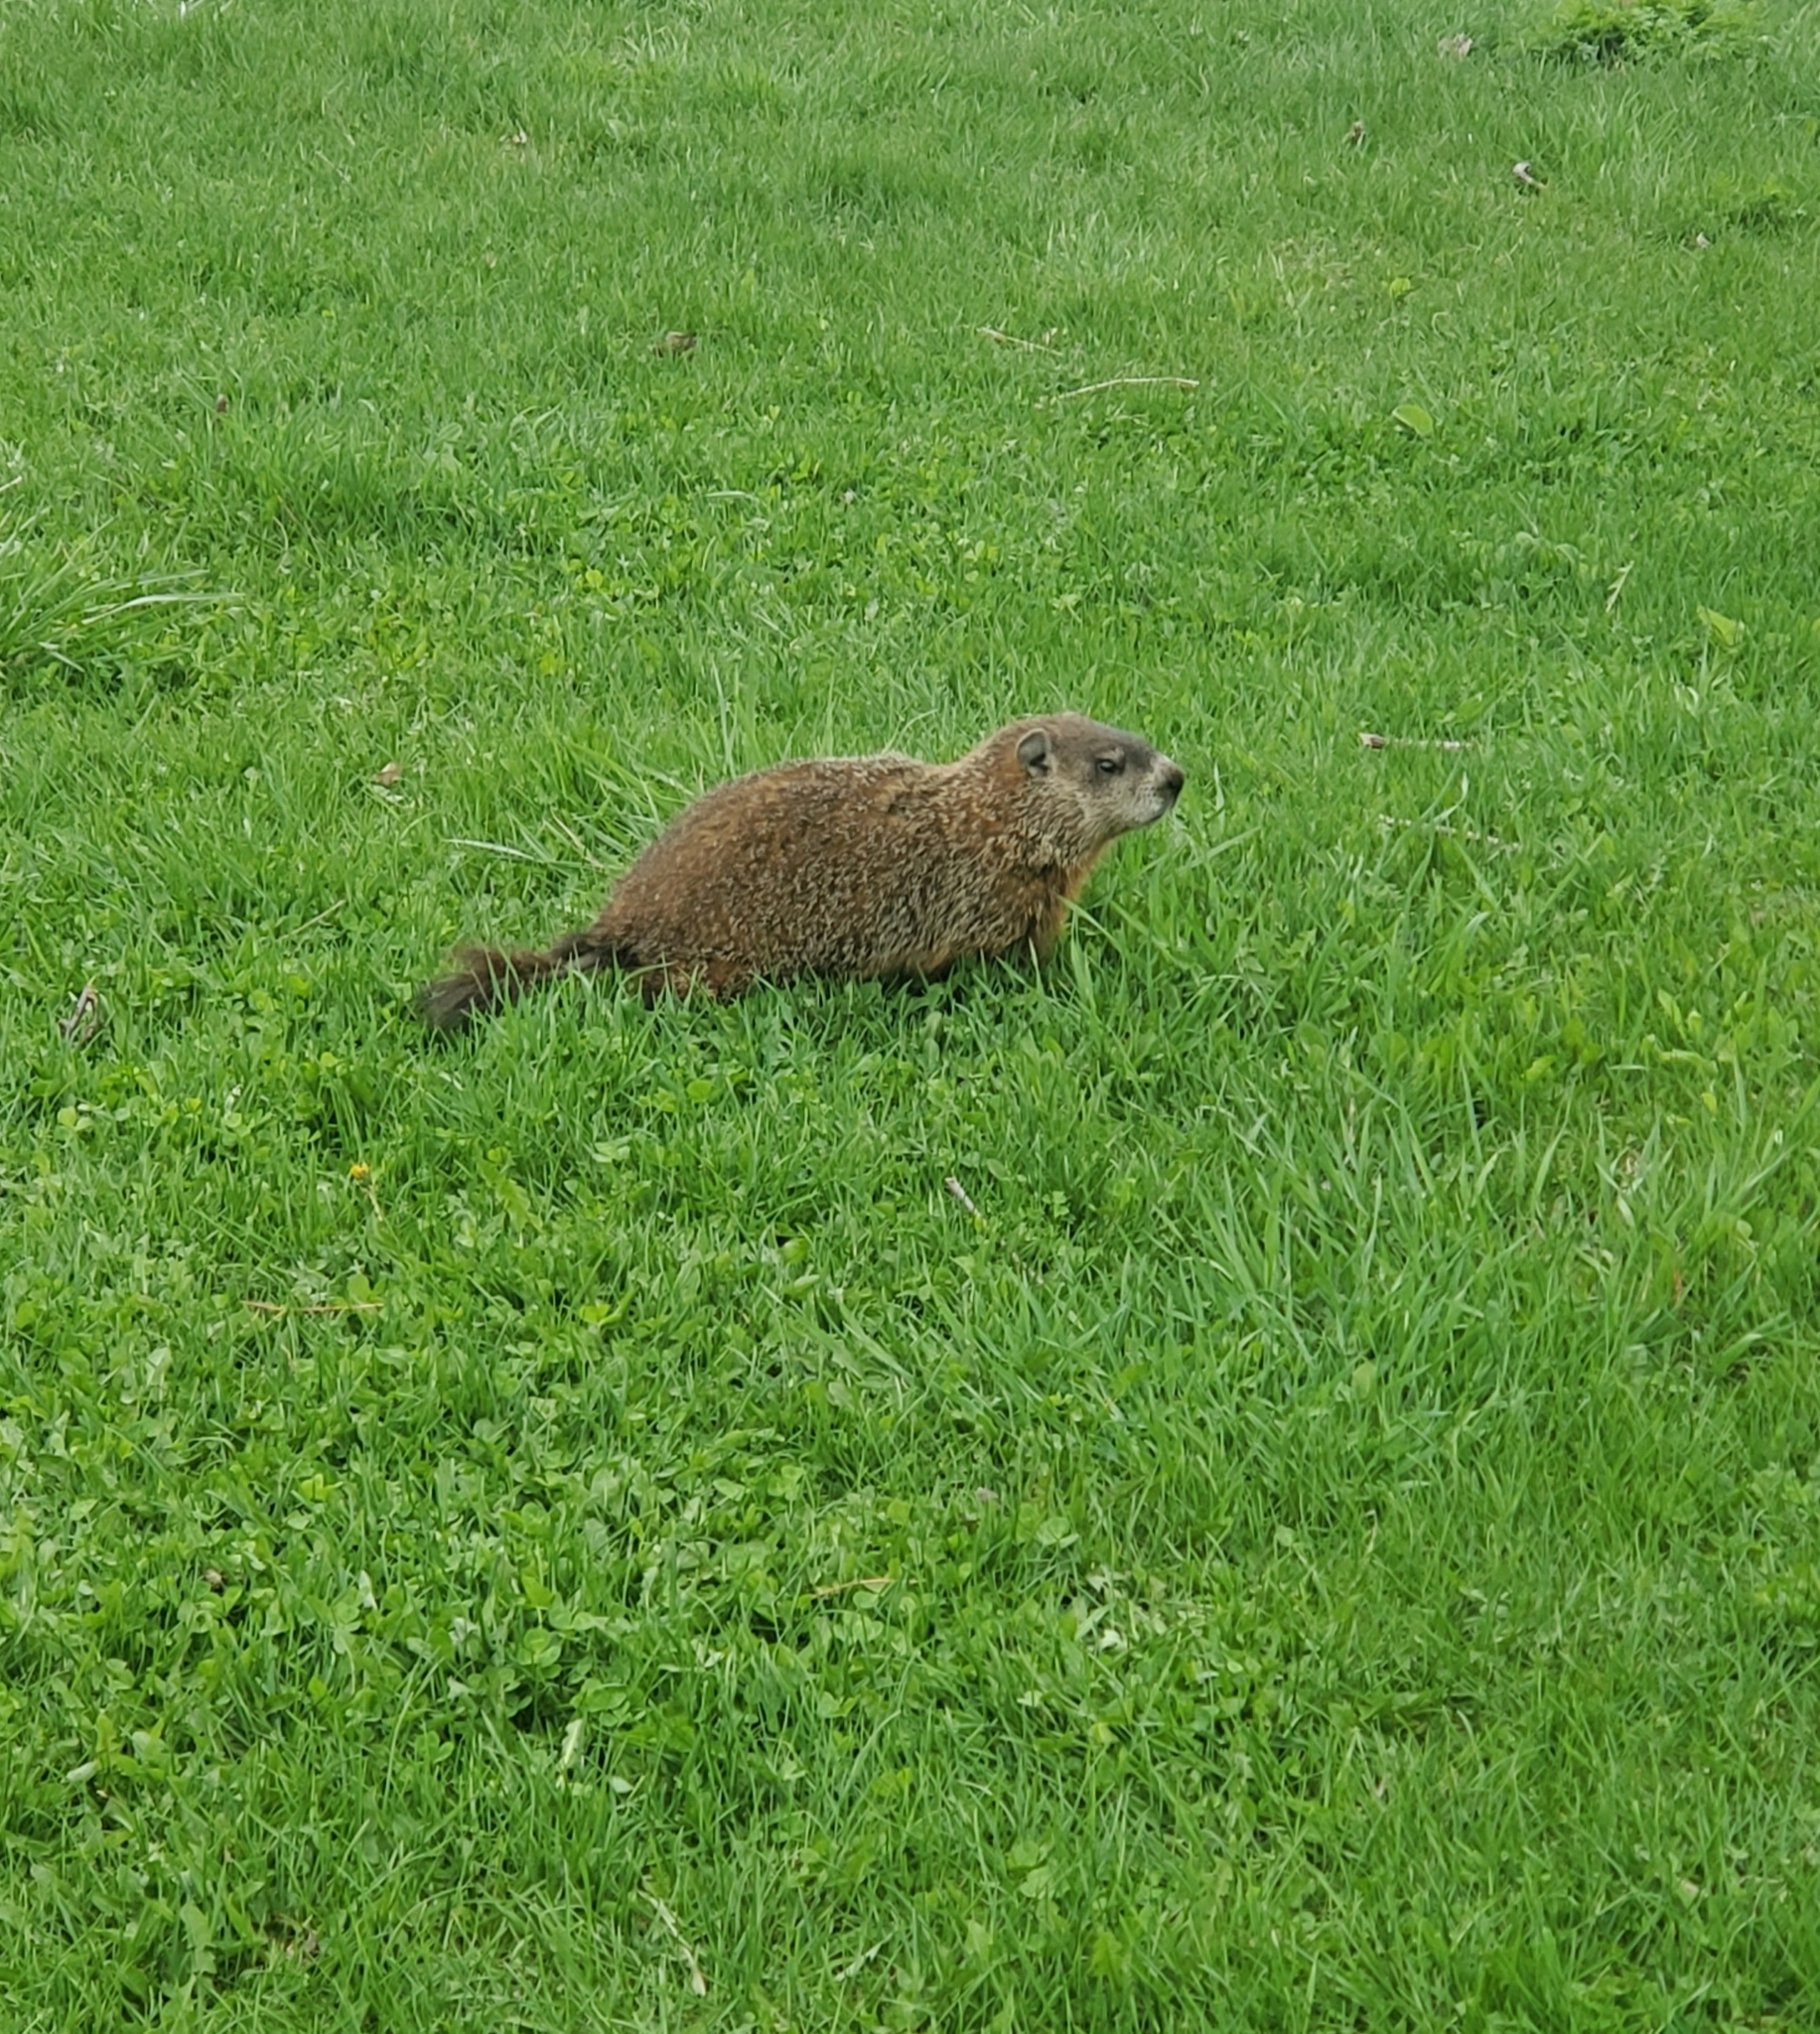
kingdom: Animalia
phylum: Chordata
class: Mammalia
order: Rodentia
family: Sciuridae
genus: Marmota
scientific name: Marmota monax
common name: Groundhog
